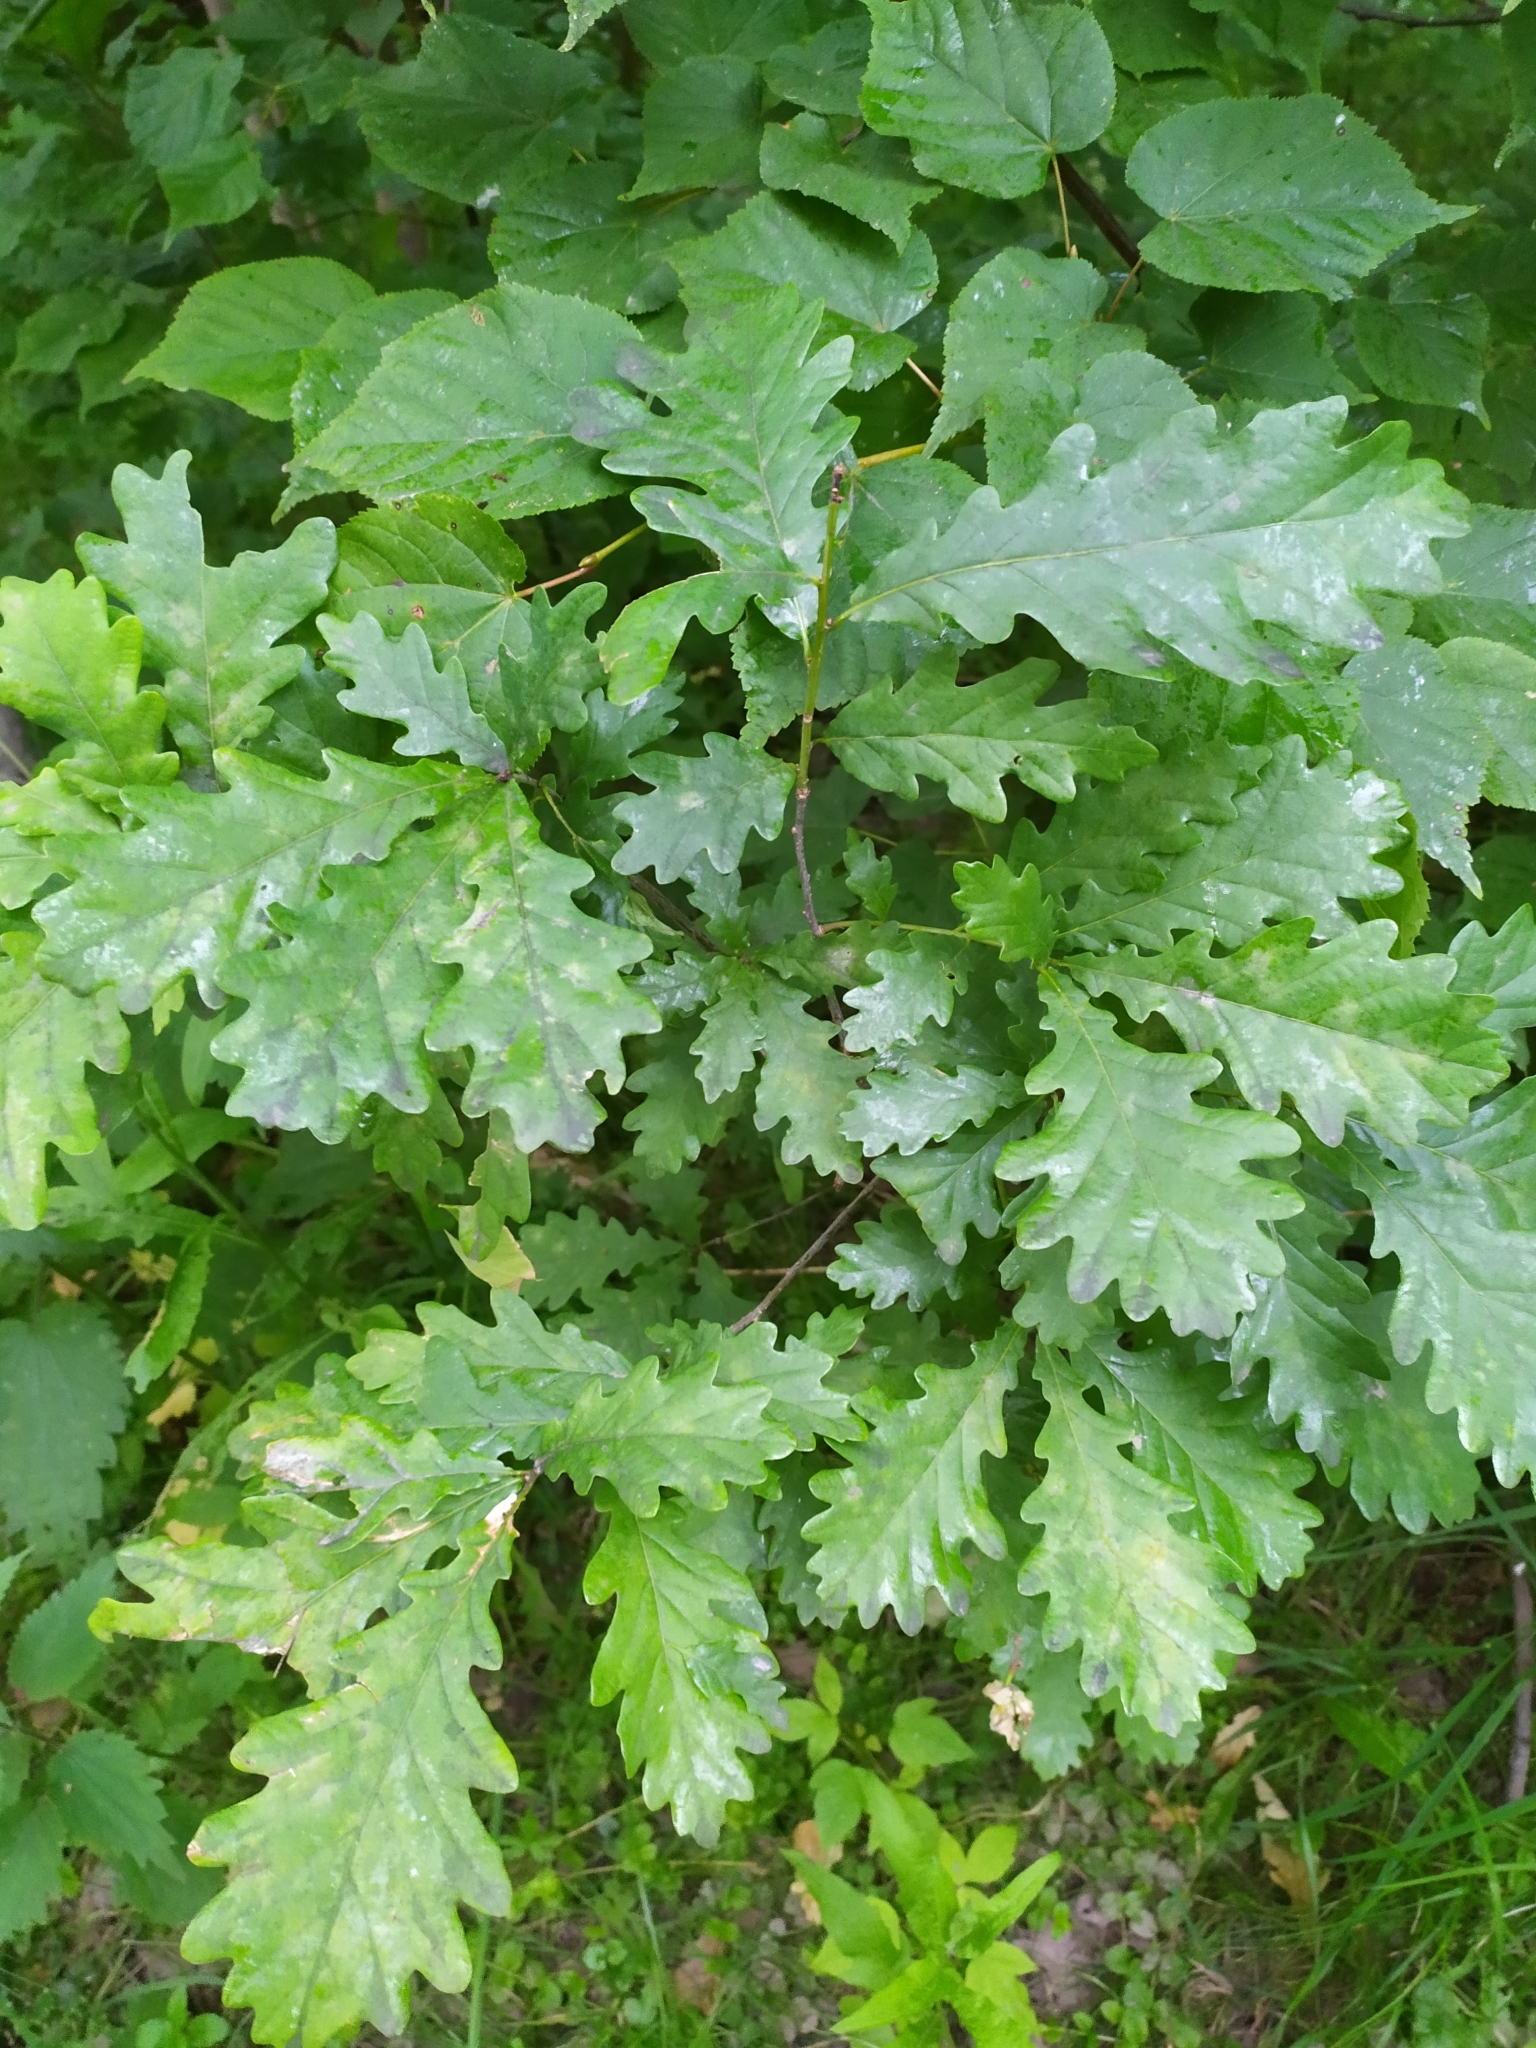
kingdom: Plantae
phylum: Tracheophyta
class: Magnoliopsida
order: Fagales
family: Fagaceae
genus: Quercus
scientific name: Quercus robur
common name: Pedunculate oak
